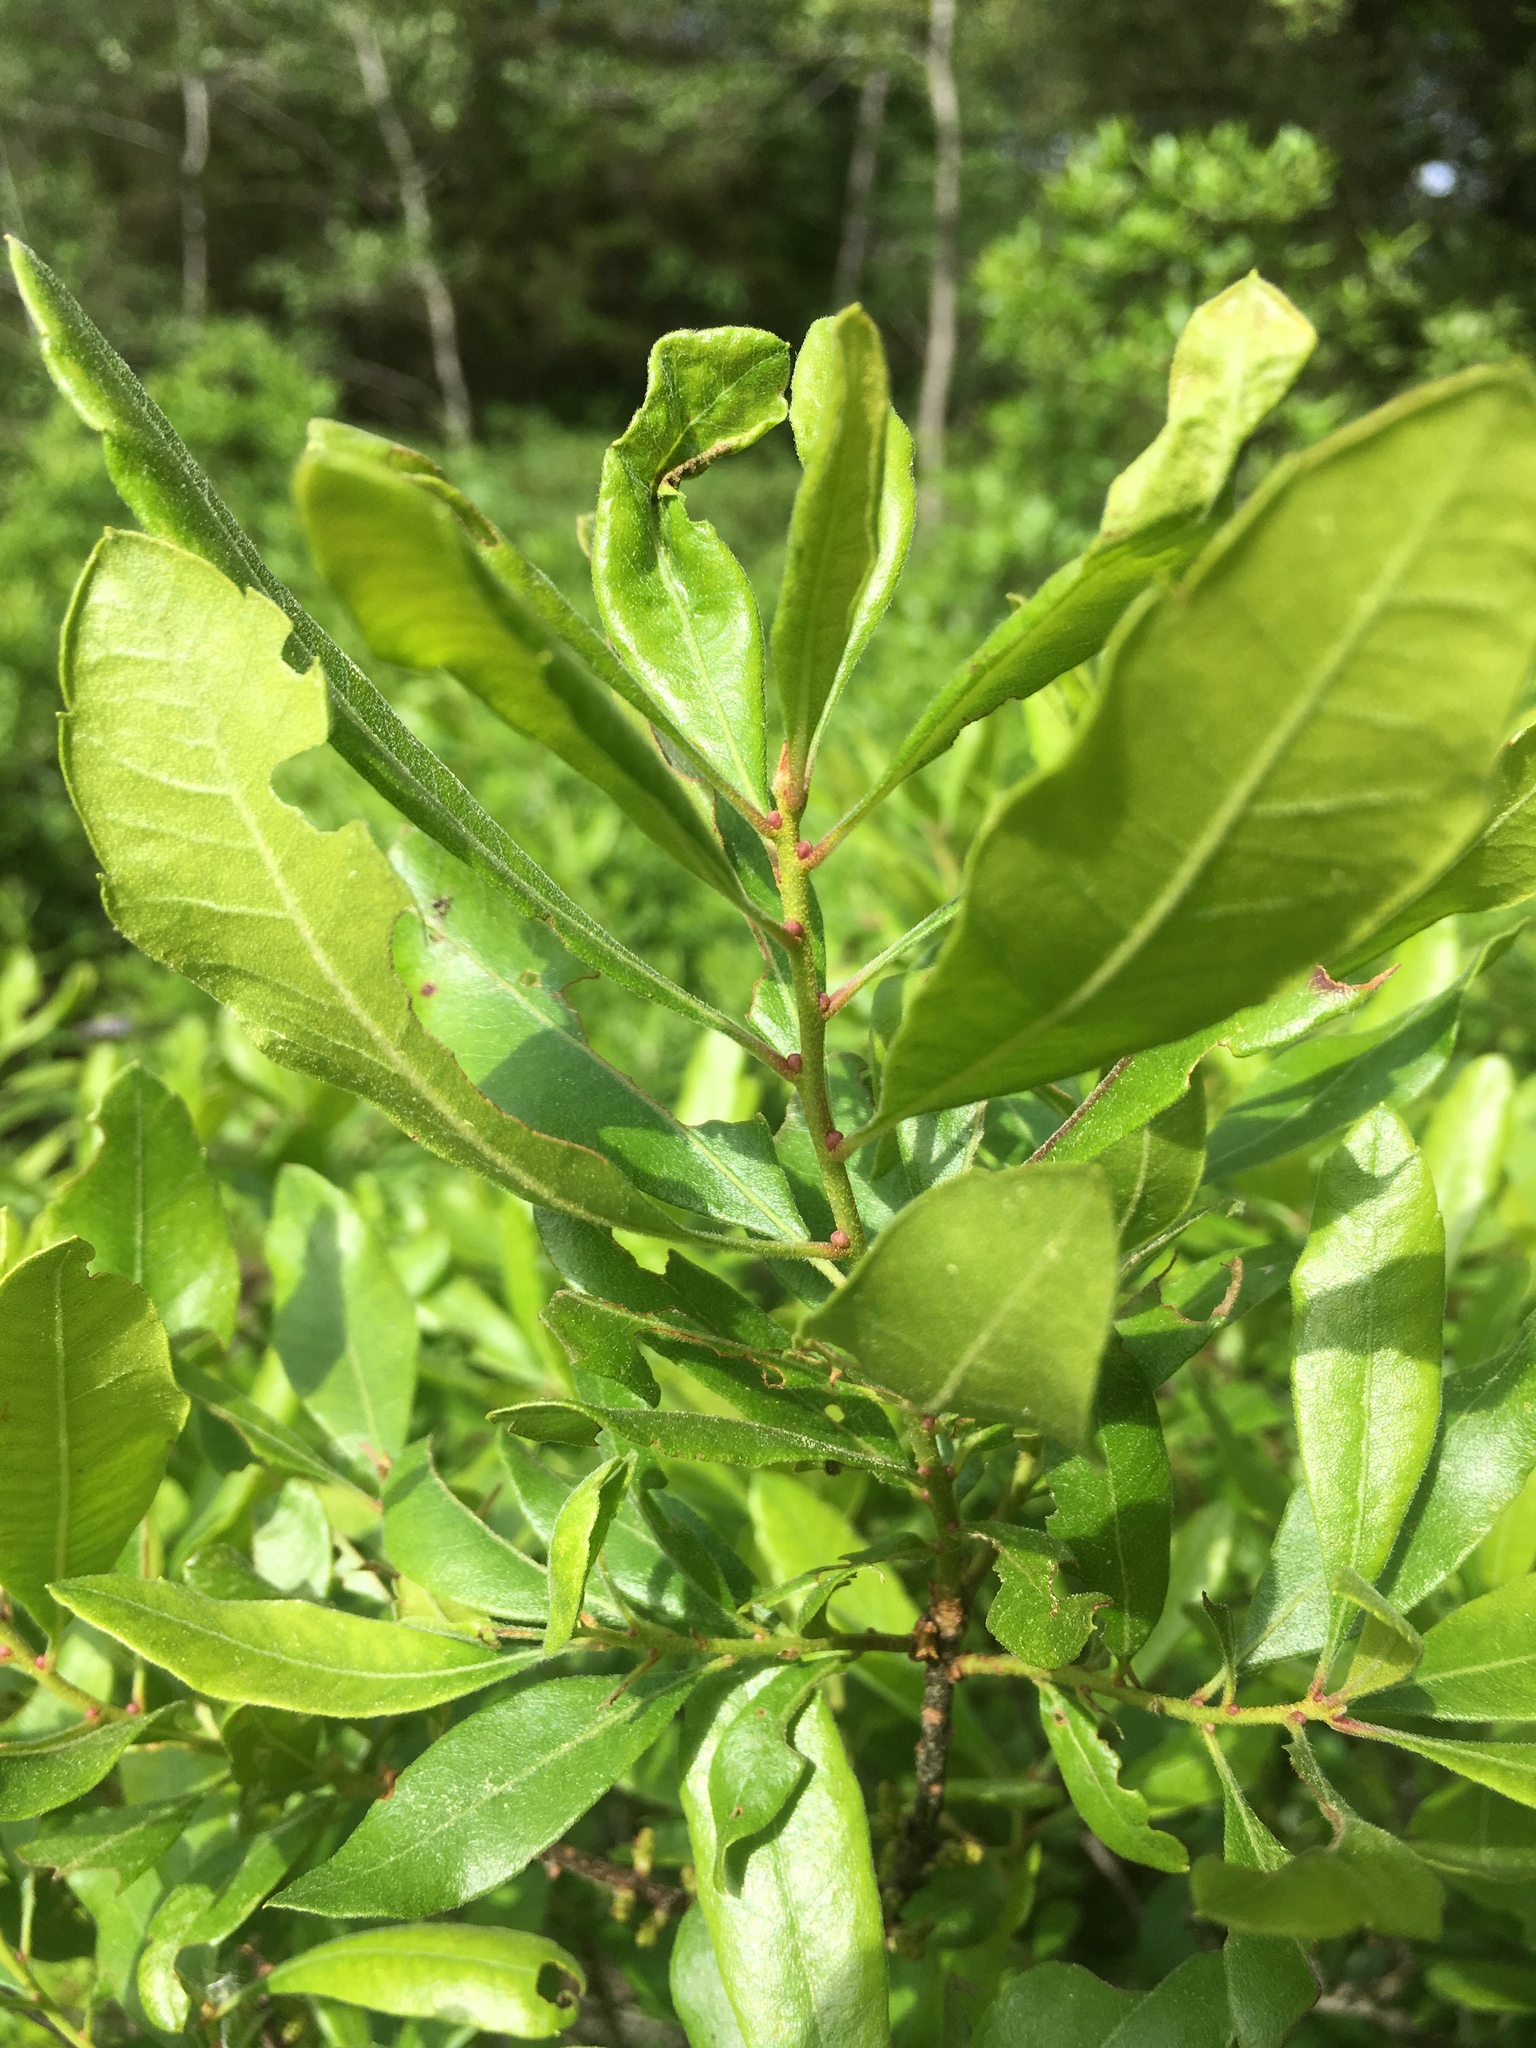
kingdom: Plantae
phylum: Tracheophyta
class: Magnoliopsida
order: Fagales
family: Myricaceae
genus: Morella
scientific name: Morella pensylvanica
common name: Northern bayberry
